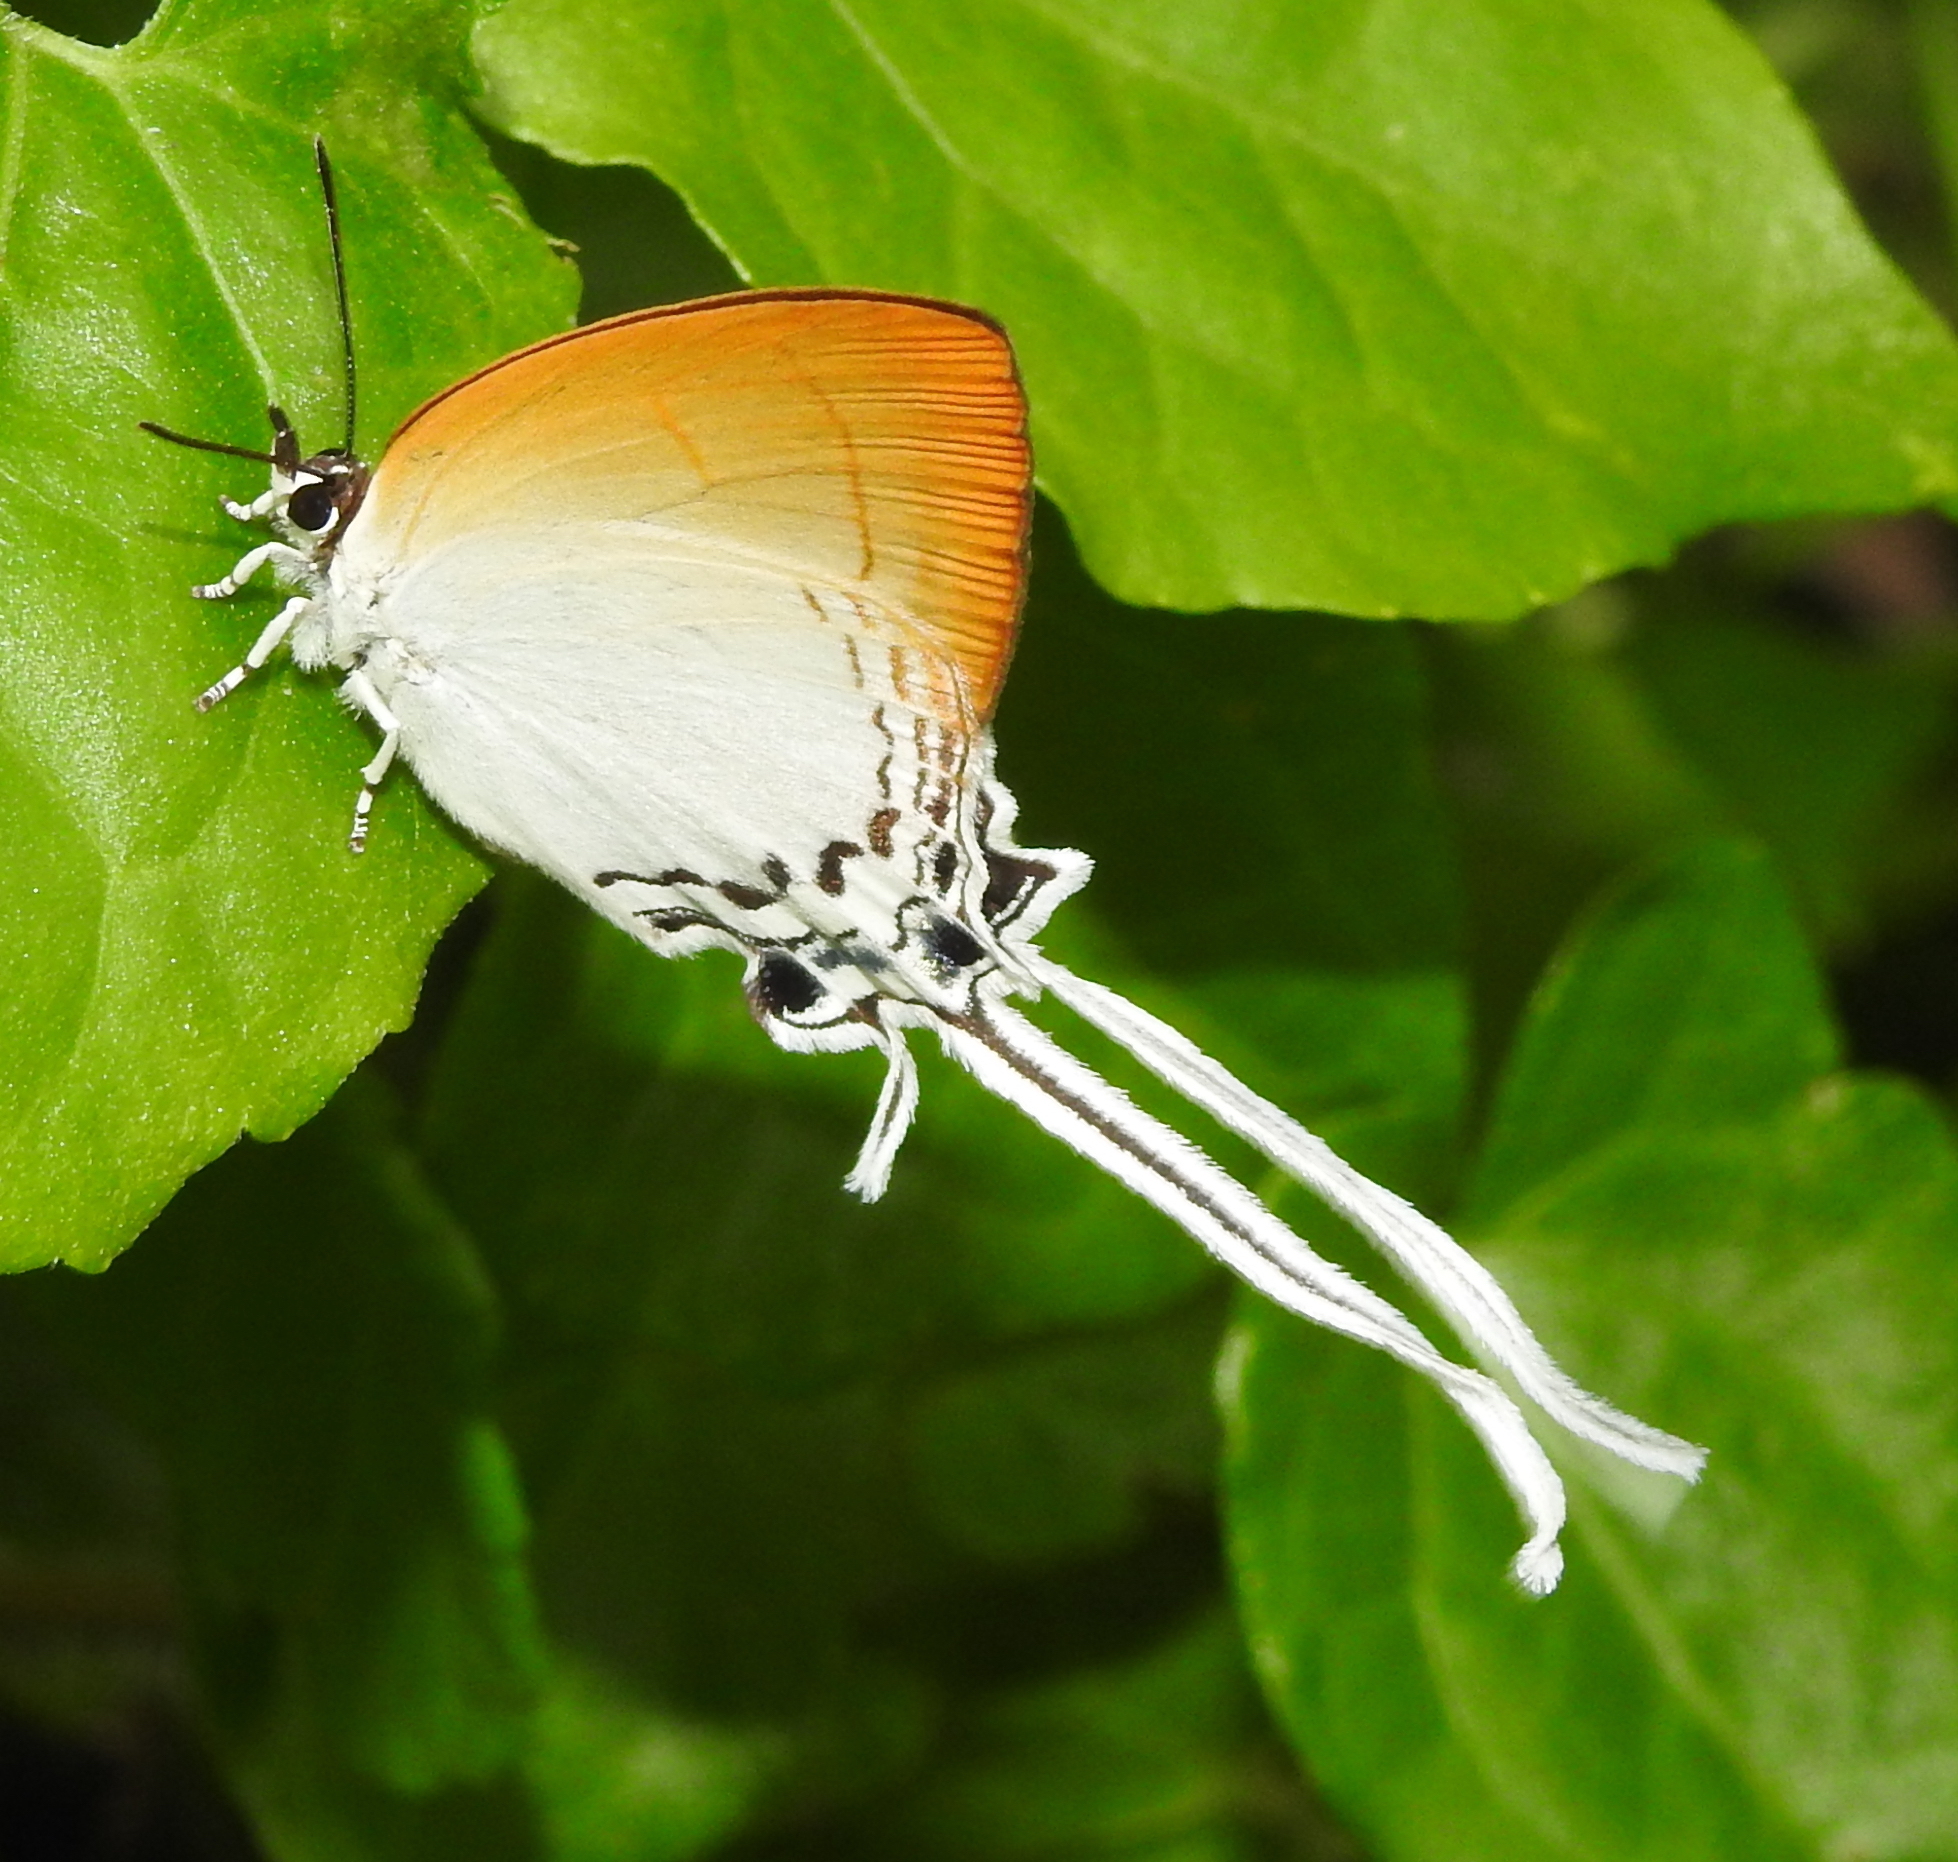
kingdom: Animalia
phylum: Arthropoda
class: Insecta
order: Lepidoptera
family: Lycaenidae
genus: Cheritra
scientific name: Cheritra freja
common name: Common imperial
